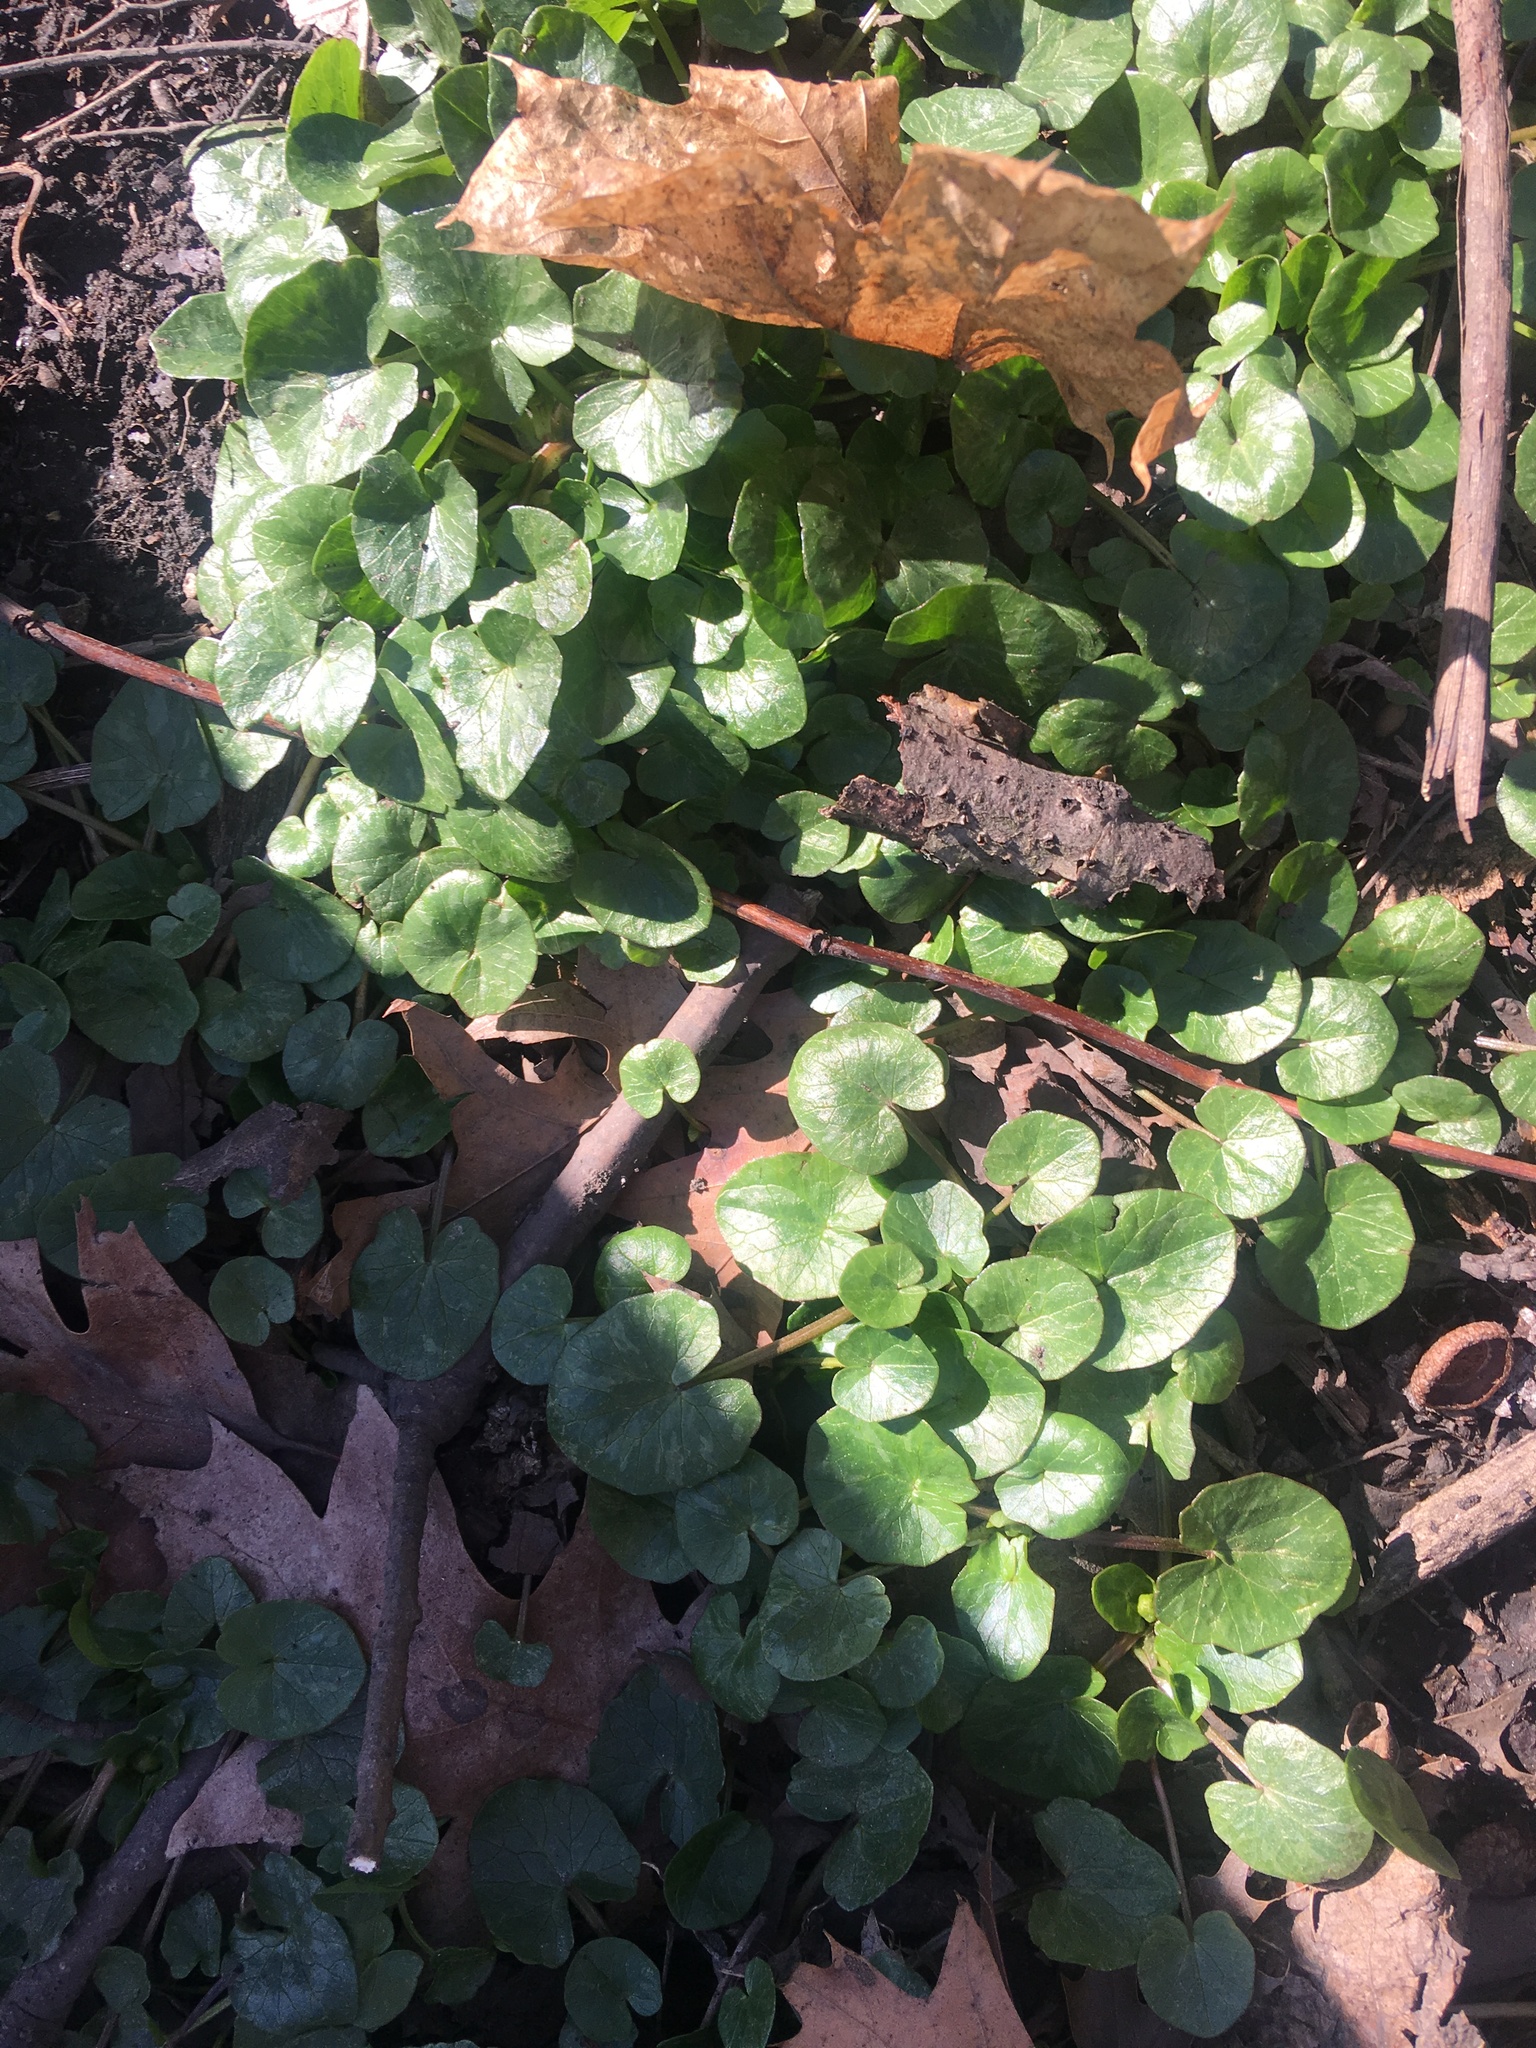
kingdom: Plantae
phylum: Tracheophyta
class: Magnoliopsida
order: Ranunculales
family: Ranunculaceae
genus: Ficaria
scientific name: Ficaria verna
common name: Lesser celandine
